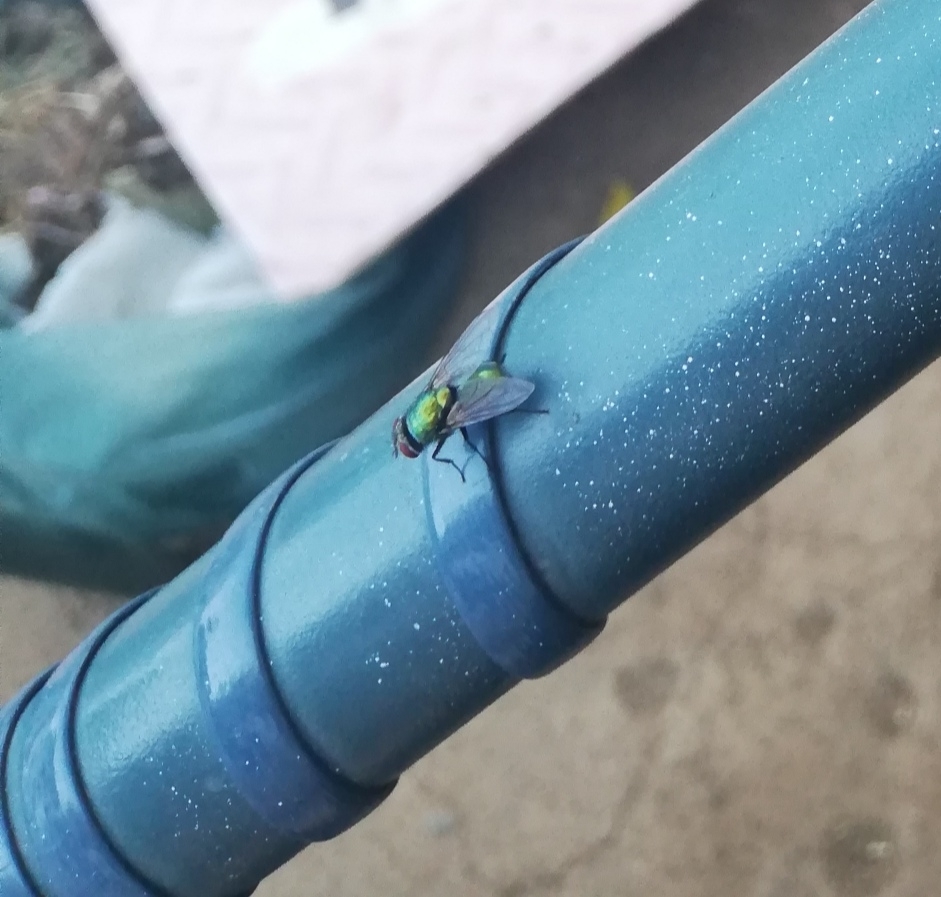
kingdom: Animalia
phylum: Arthropoda
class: Insecta
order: Diptera
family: Calliphoridae
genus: Lucilia
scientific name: Lucilia sericata
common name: Blow fly
